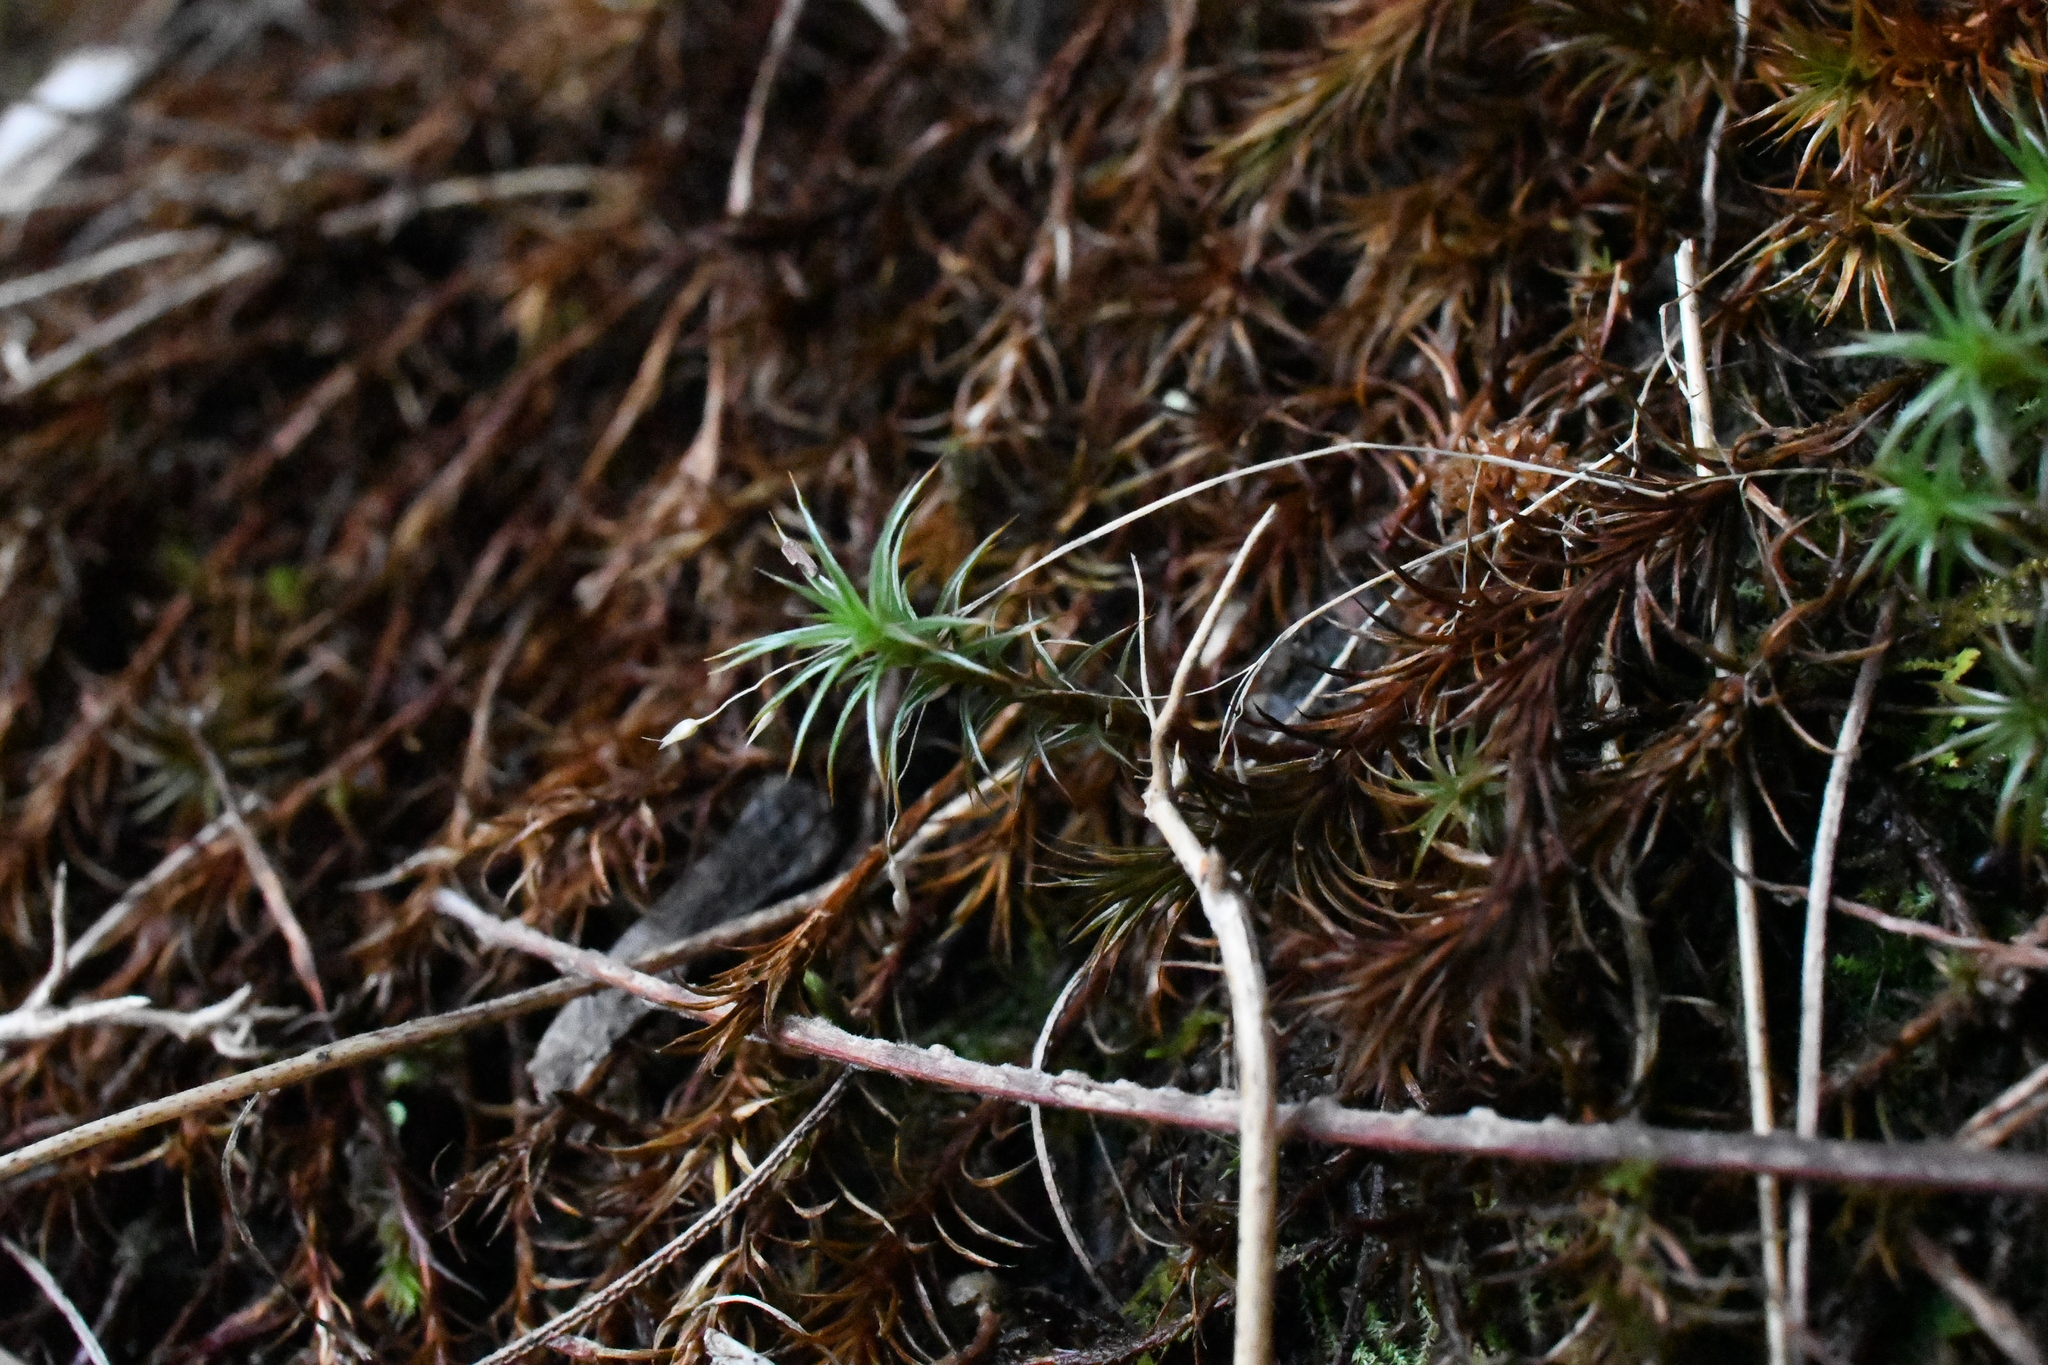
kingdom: Plantae
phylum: Bryophyta
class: Polytrichopsida
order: Polytrichales
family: Polytrichaceae
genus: Polytrichum
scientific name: Polytrichum juniperinum
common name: Juniper haircap moss
